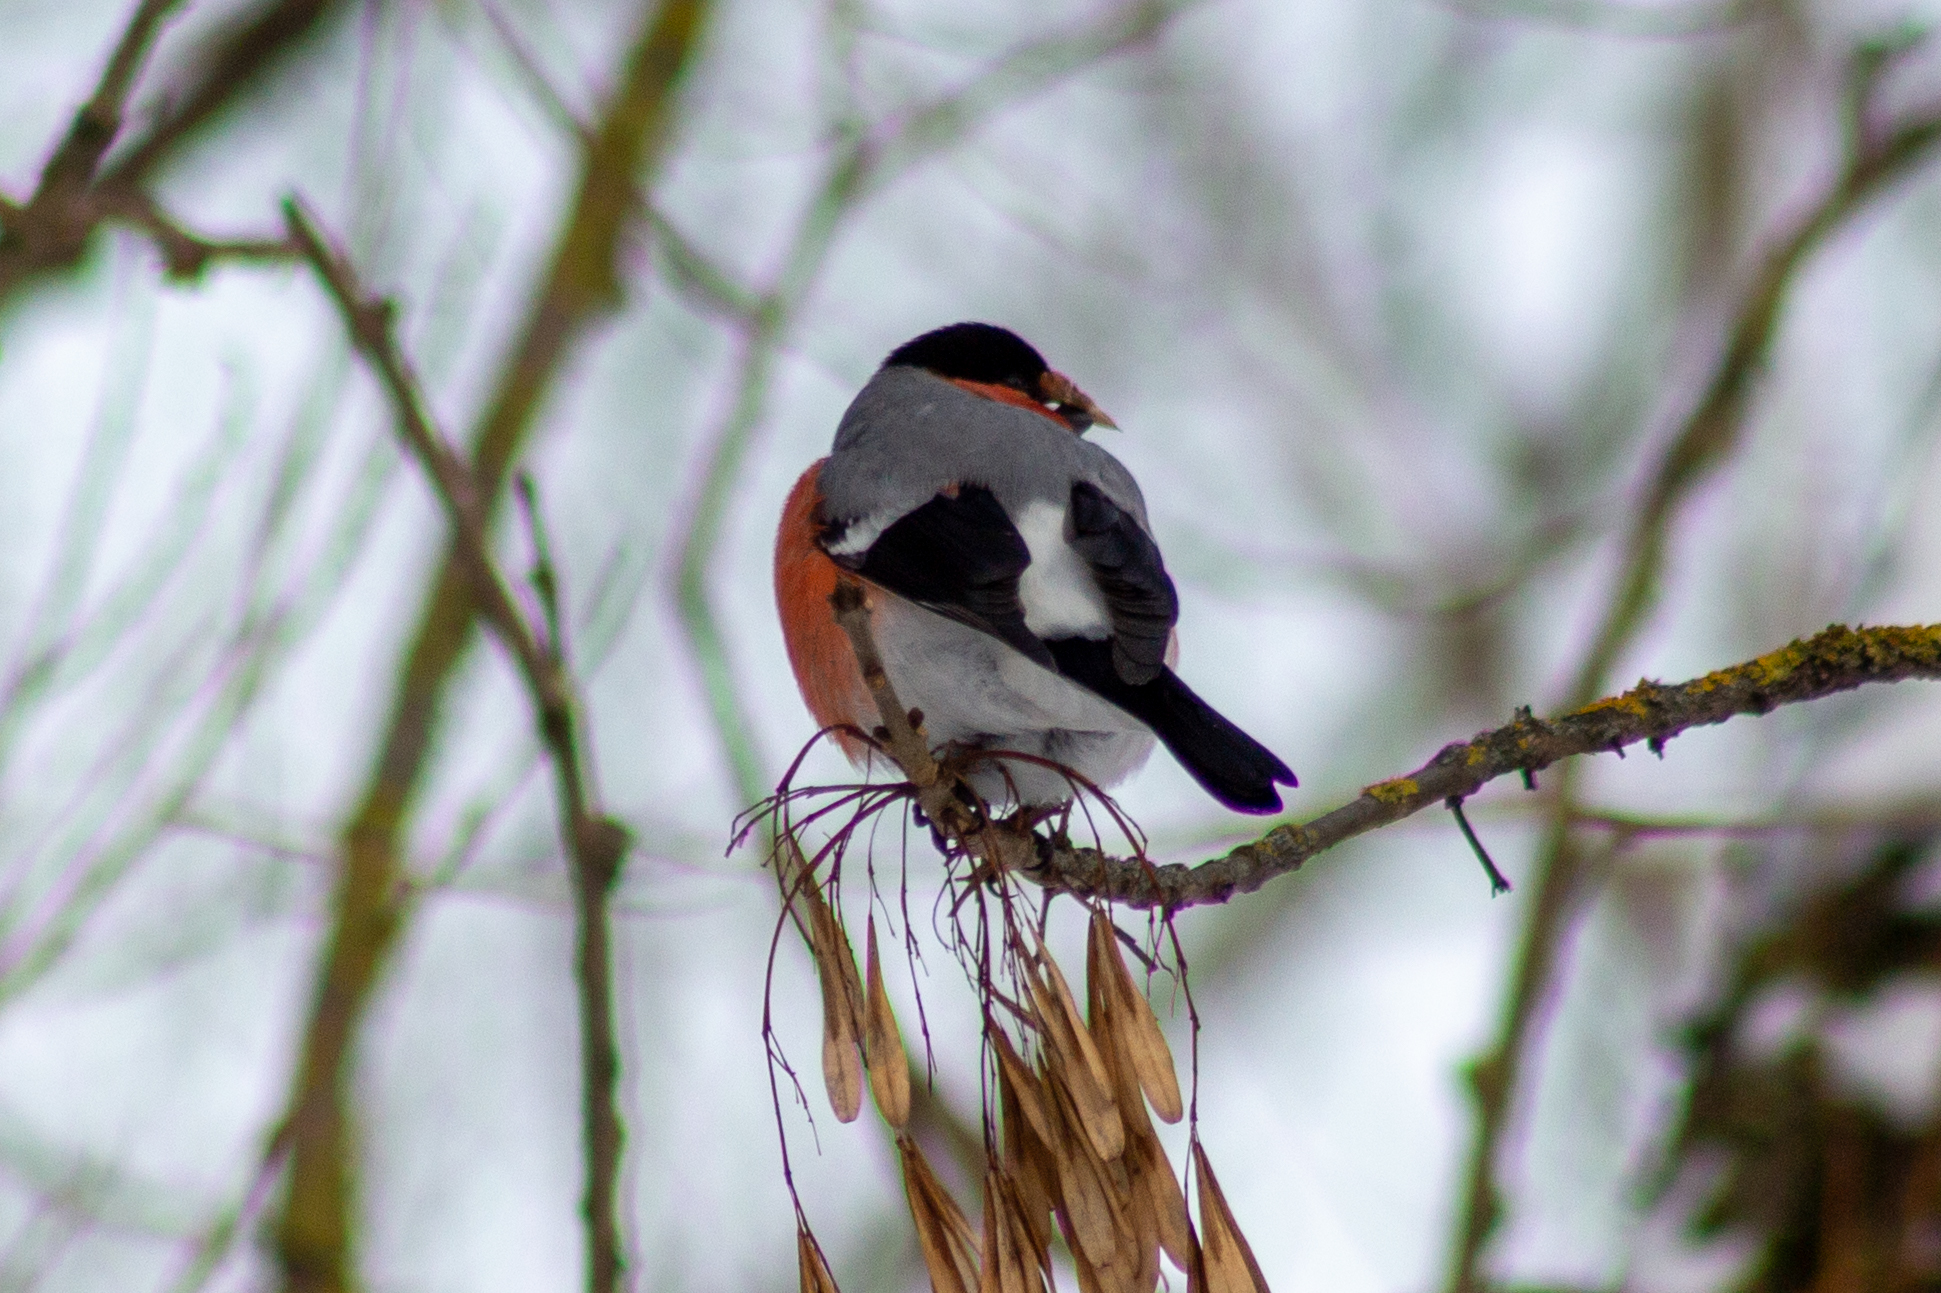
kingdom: Animalia
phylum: Chordata
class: Aves
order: Passeriformes
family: Fringillidae
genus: Pyrrhula
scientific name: Pyrrhula pyrrhula
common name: Eurasian bullfinch
